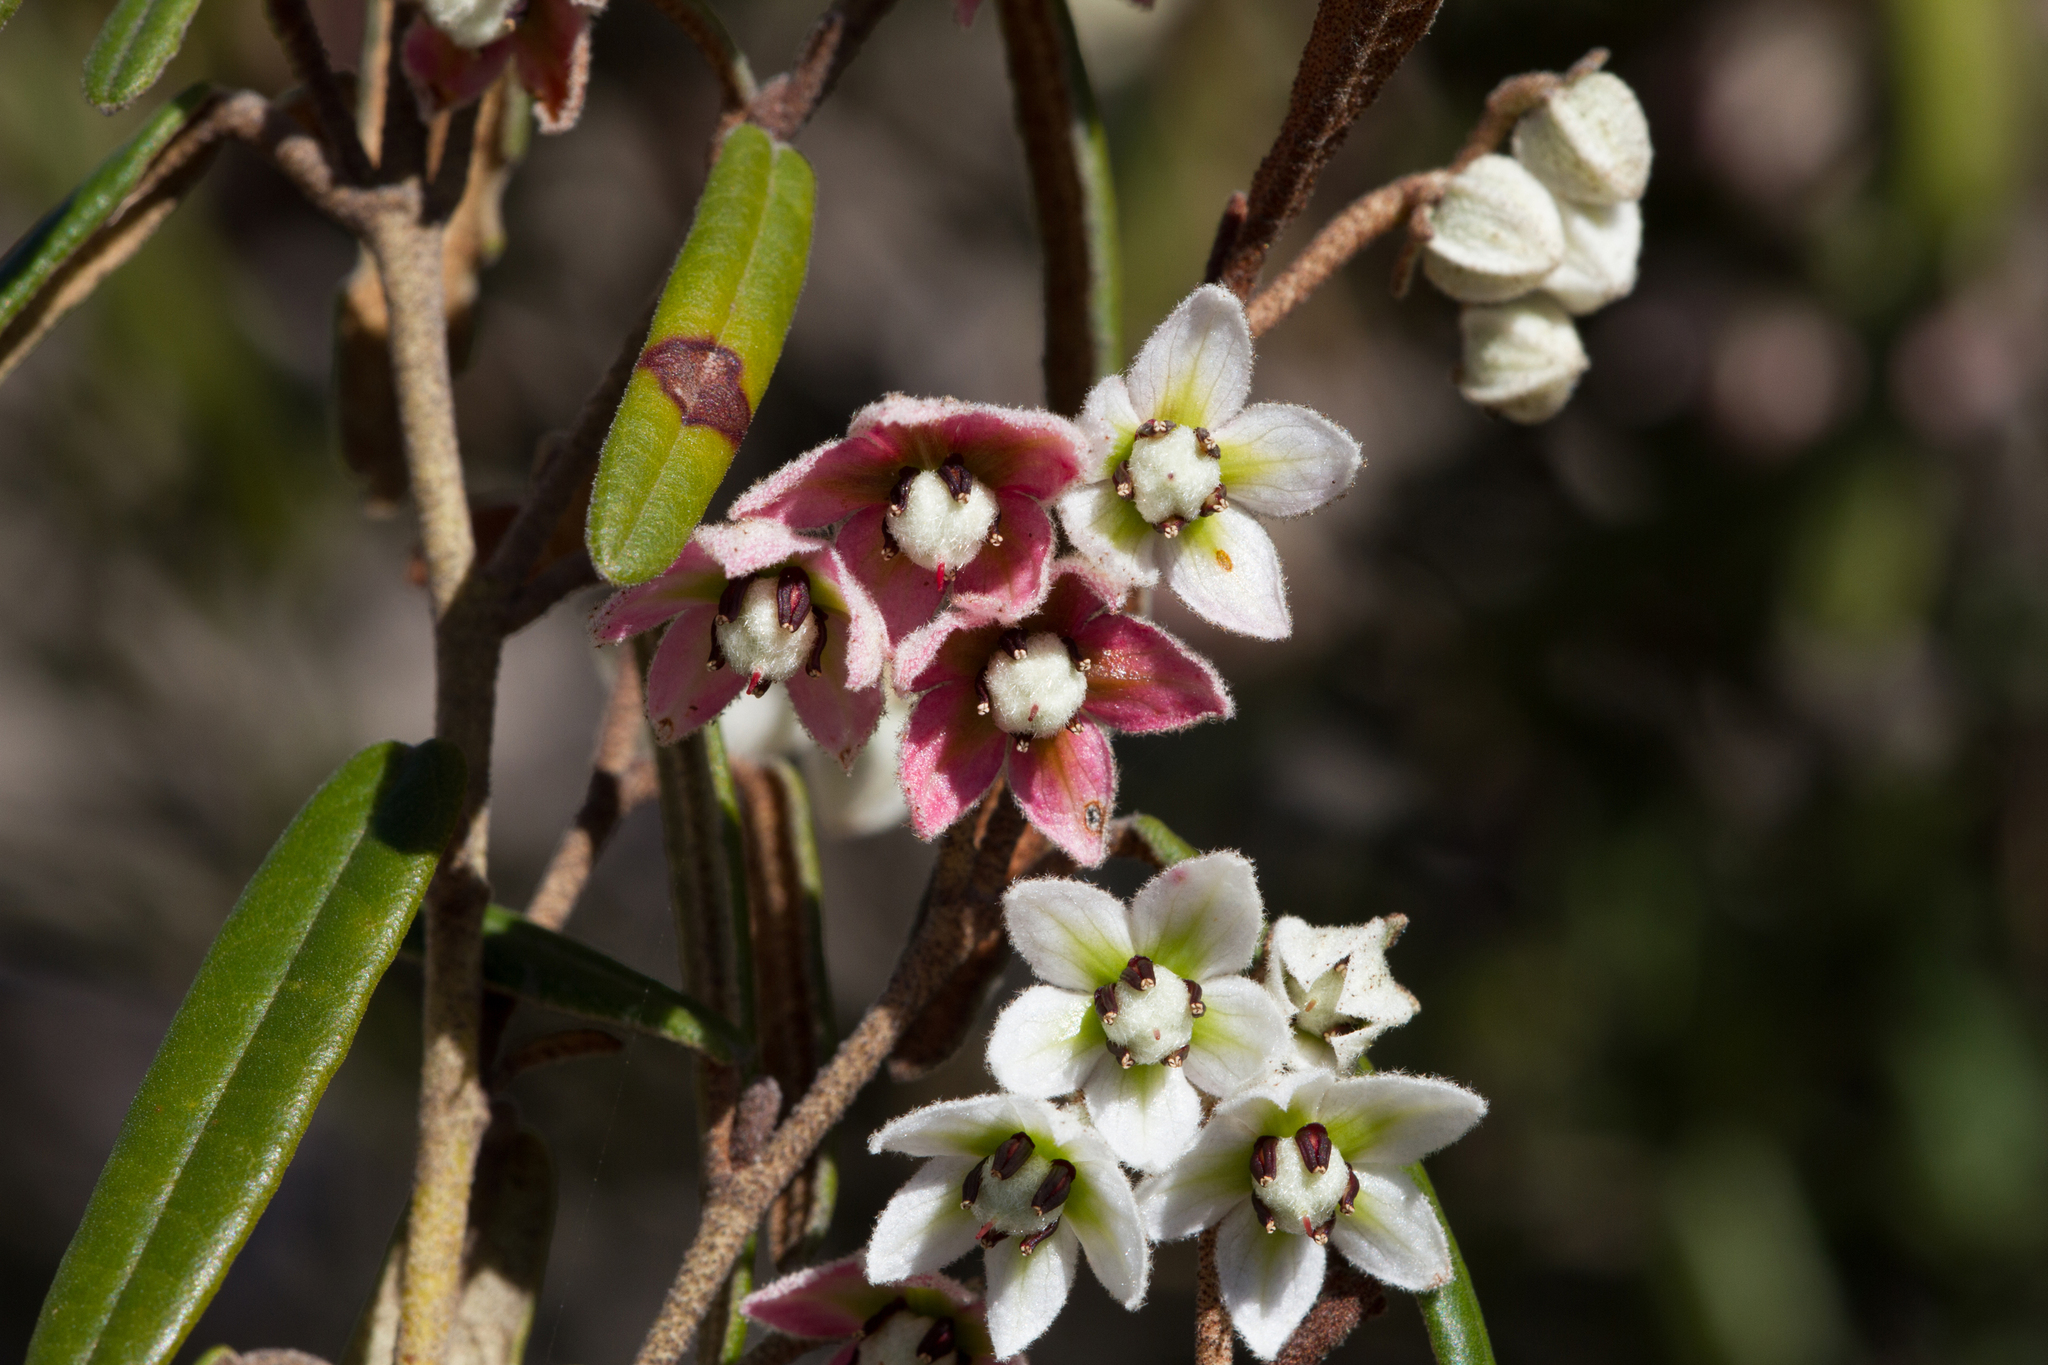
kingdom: Plantae
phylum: Tracheophyta
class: Magnoliopsida
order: Malvales
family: Malvaceae
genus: Lasiopetalum
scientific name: Lasiopetalum behrii
